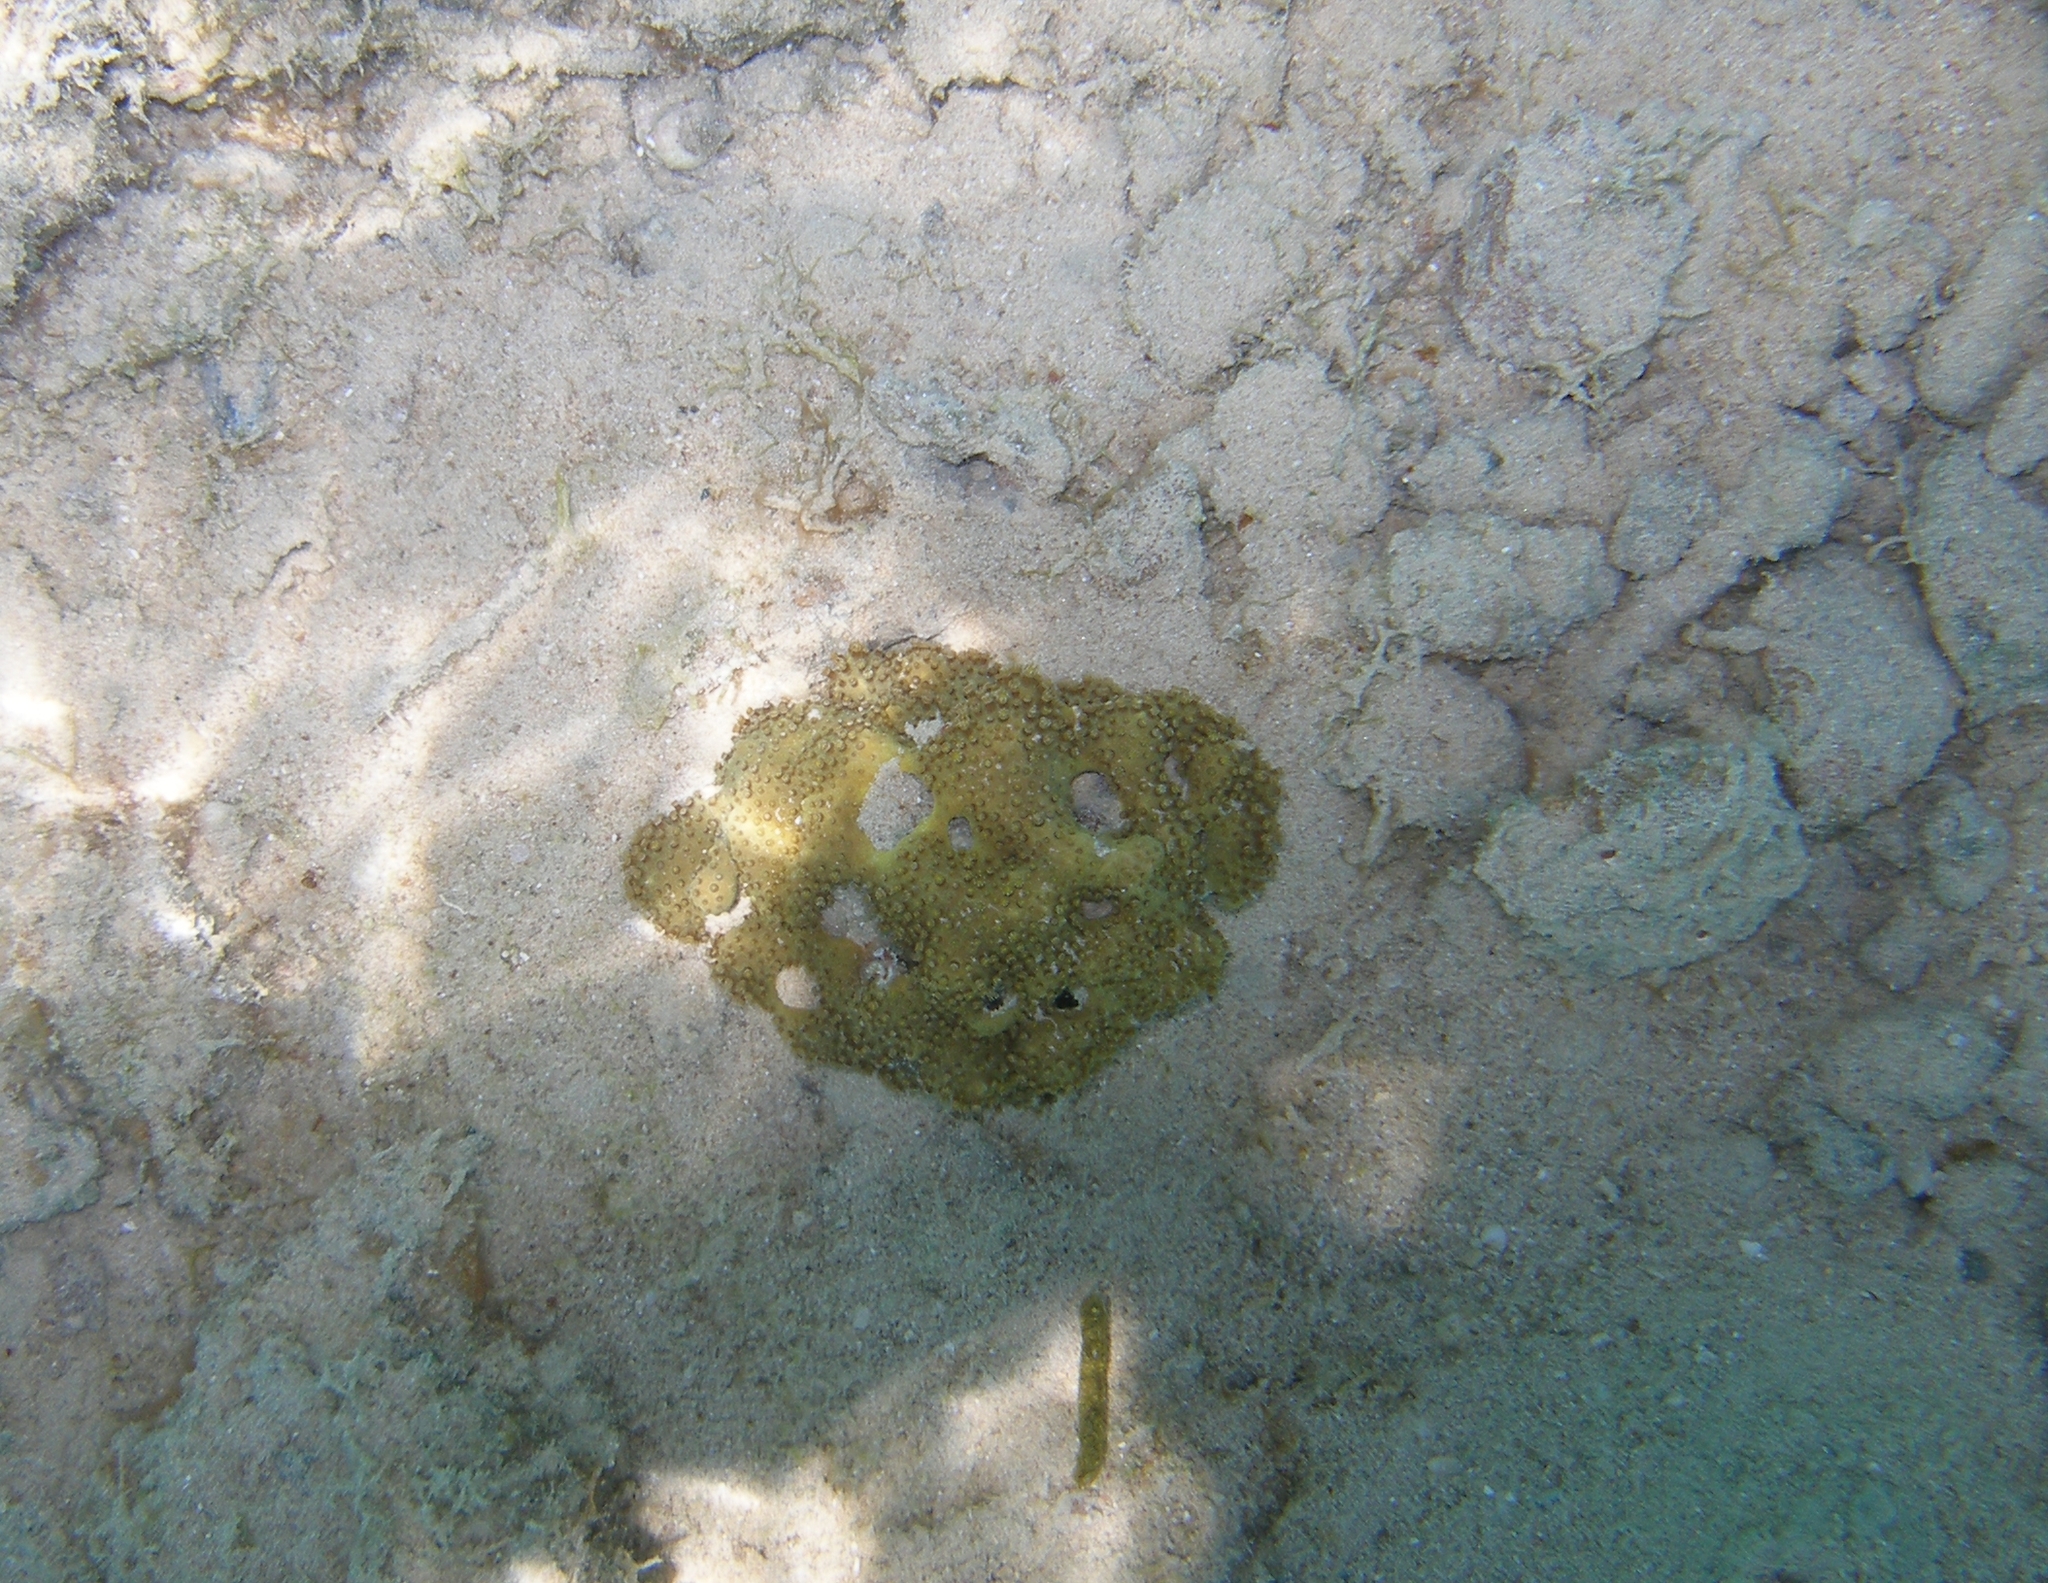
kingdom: Animalia
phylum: Cnidaria
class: Anthozoa
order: Malacalcyonacea
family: Lemnaliadae
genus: Rhytisma
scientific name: Rhytisma fulvum
